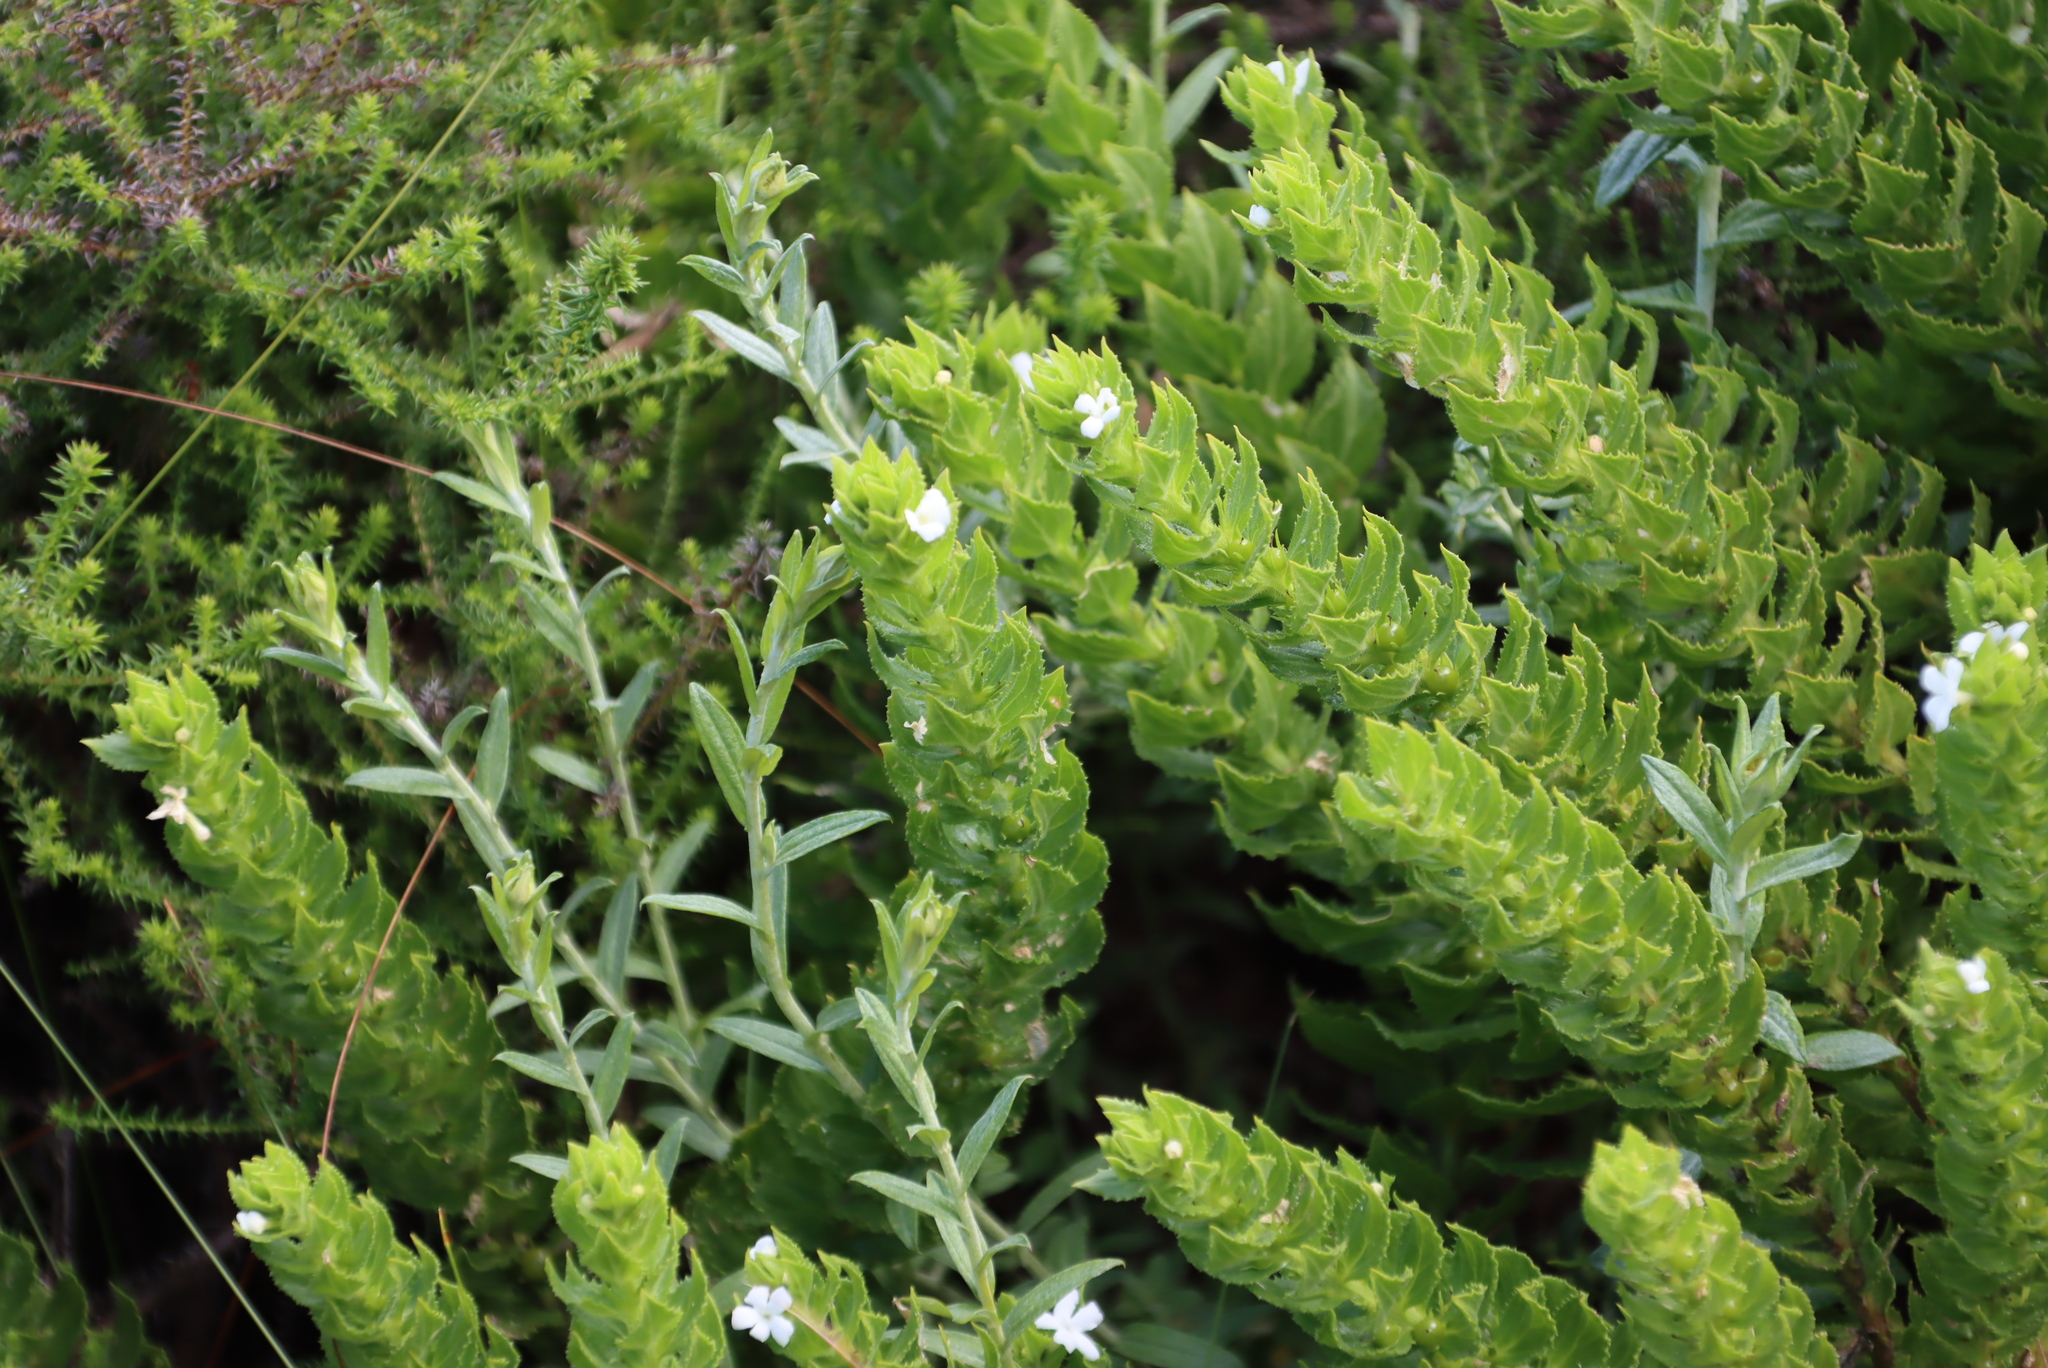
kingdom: Plantae
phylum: Tracheophyta
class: Magnoliopsida
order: Lamiales
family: Scrophulariaceae
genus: Oftia
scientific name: Oftia africana
